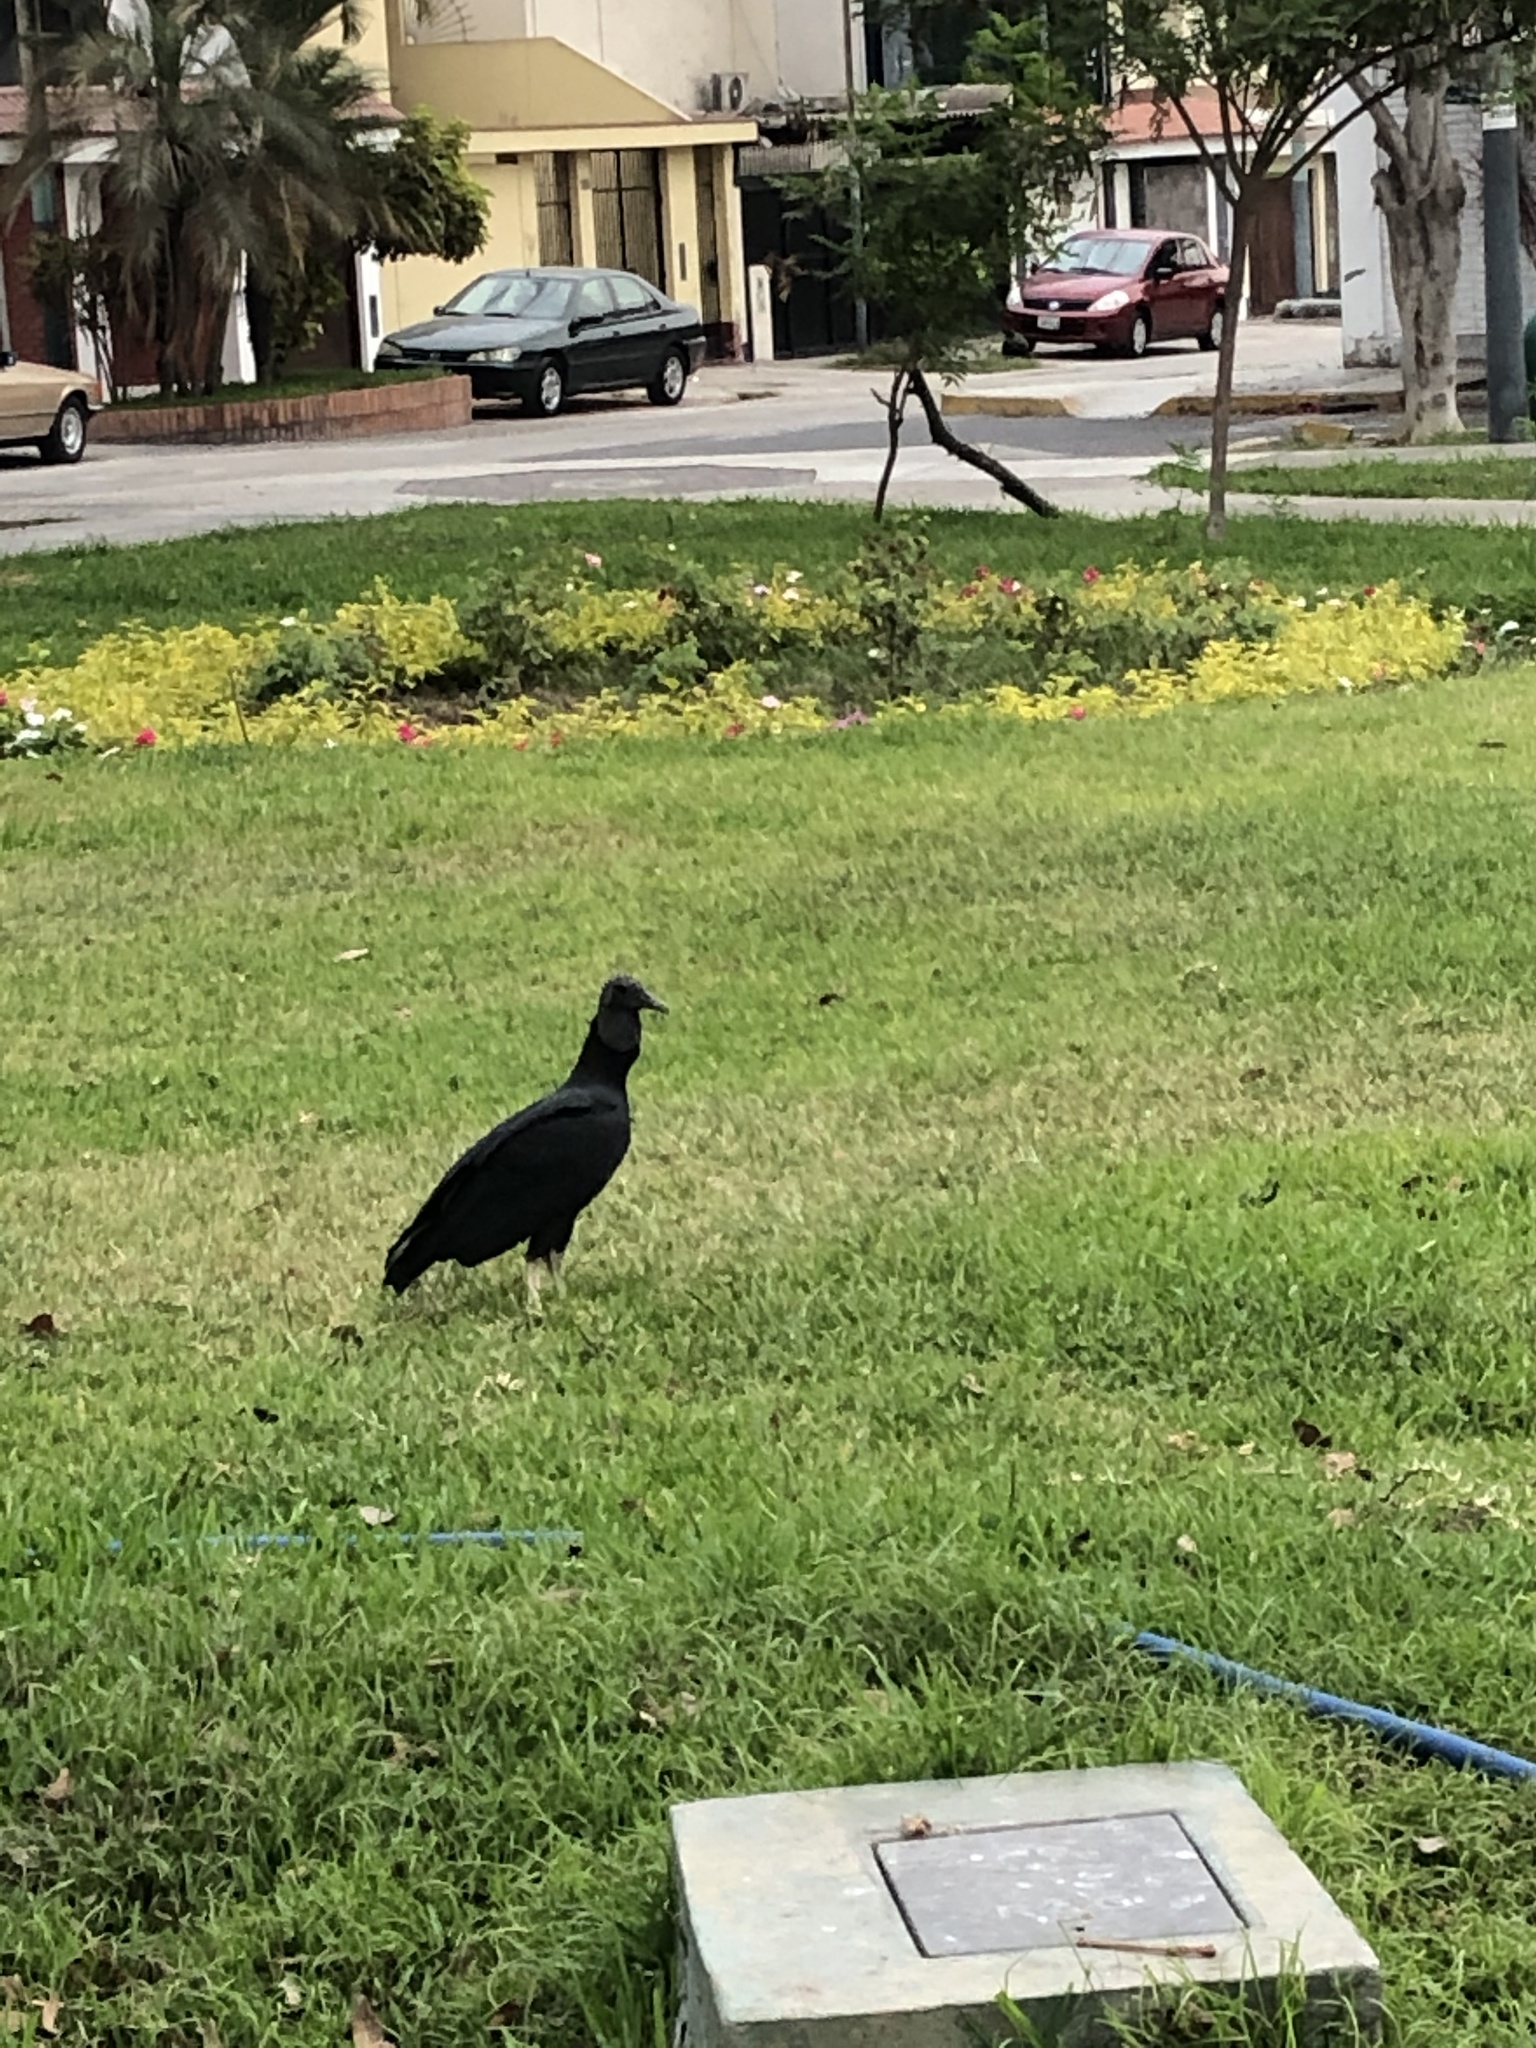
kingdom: Animalia
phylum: Chordata
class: Aves
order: Accipitriformes
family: Cathartidae
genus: Coragyps
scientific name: Coragyps atratus
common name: Black vulture
